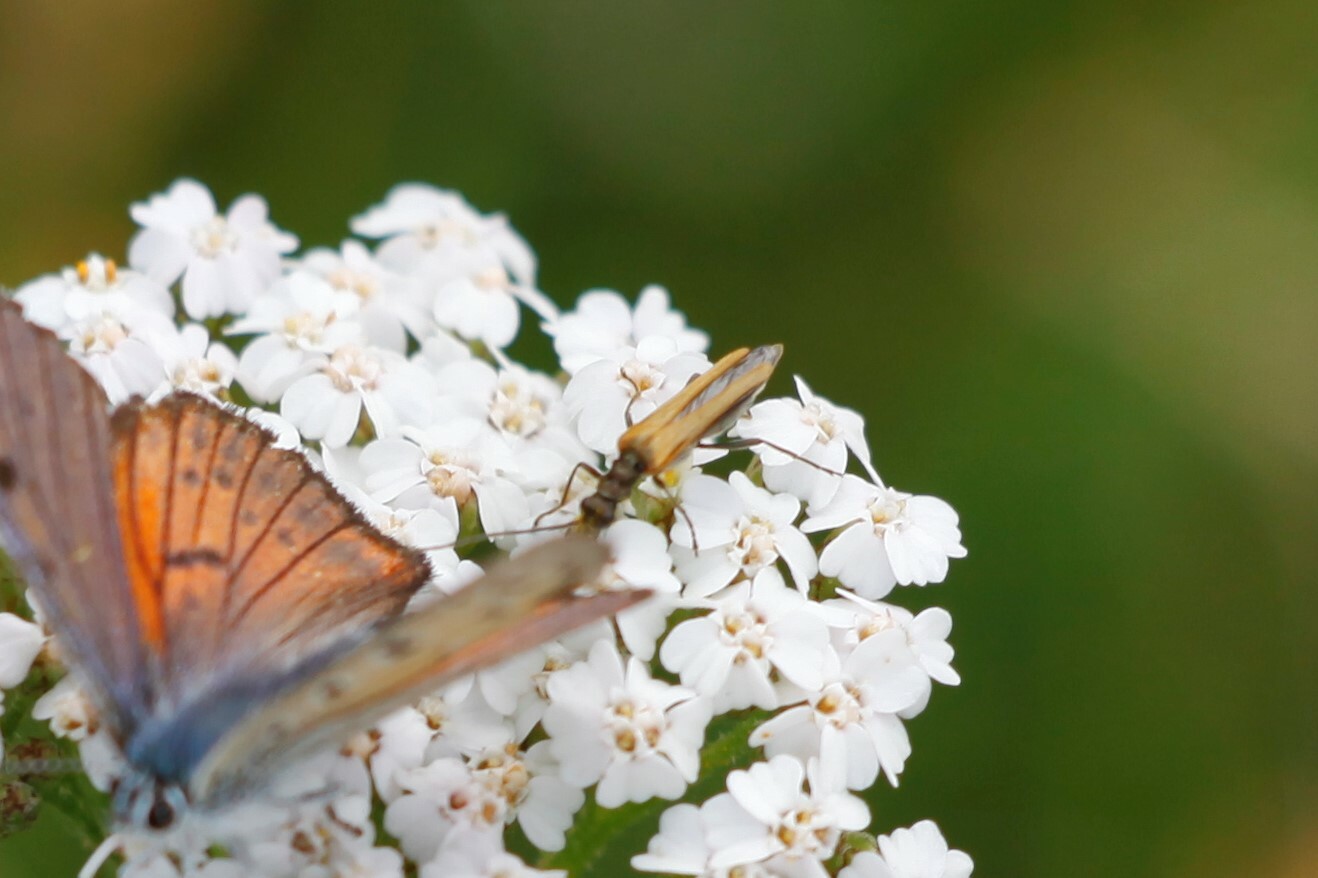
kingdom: Animalia
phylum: Arthropoda
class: Insecta
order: Coleoptera
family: Oedemeridae
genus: Oedemera
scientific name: Oedemera femorata
